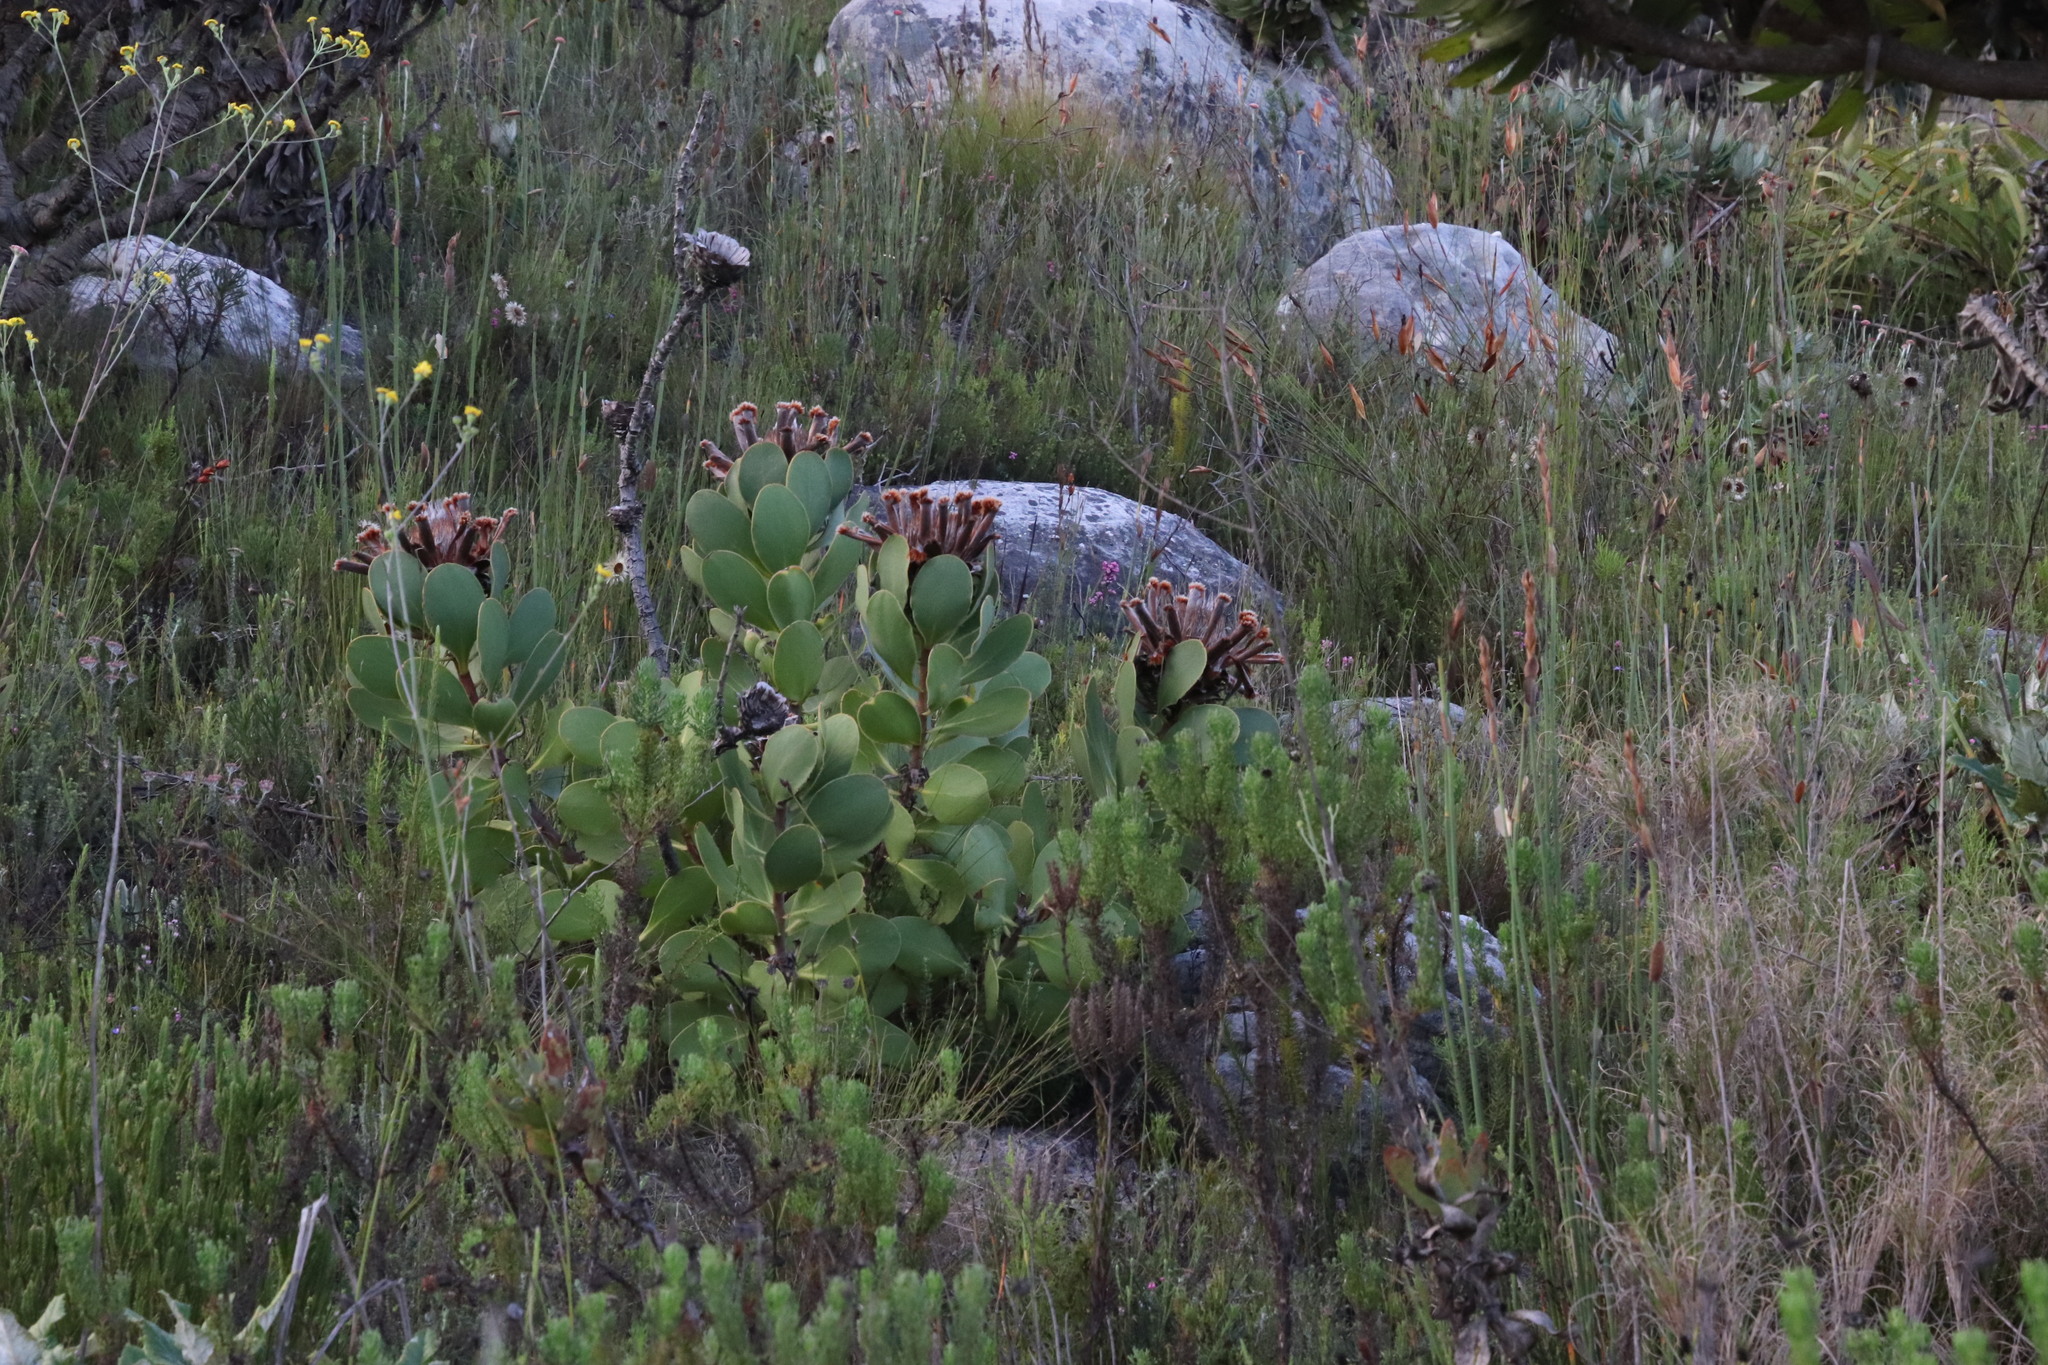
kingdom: Plantae
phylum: Tracheophyta
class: Magnoliopsida
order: Proteales
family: Proteaceae
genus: Protea
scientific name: Protea speciosa
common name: Brown-beard sugarbush
